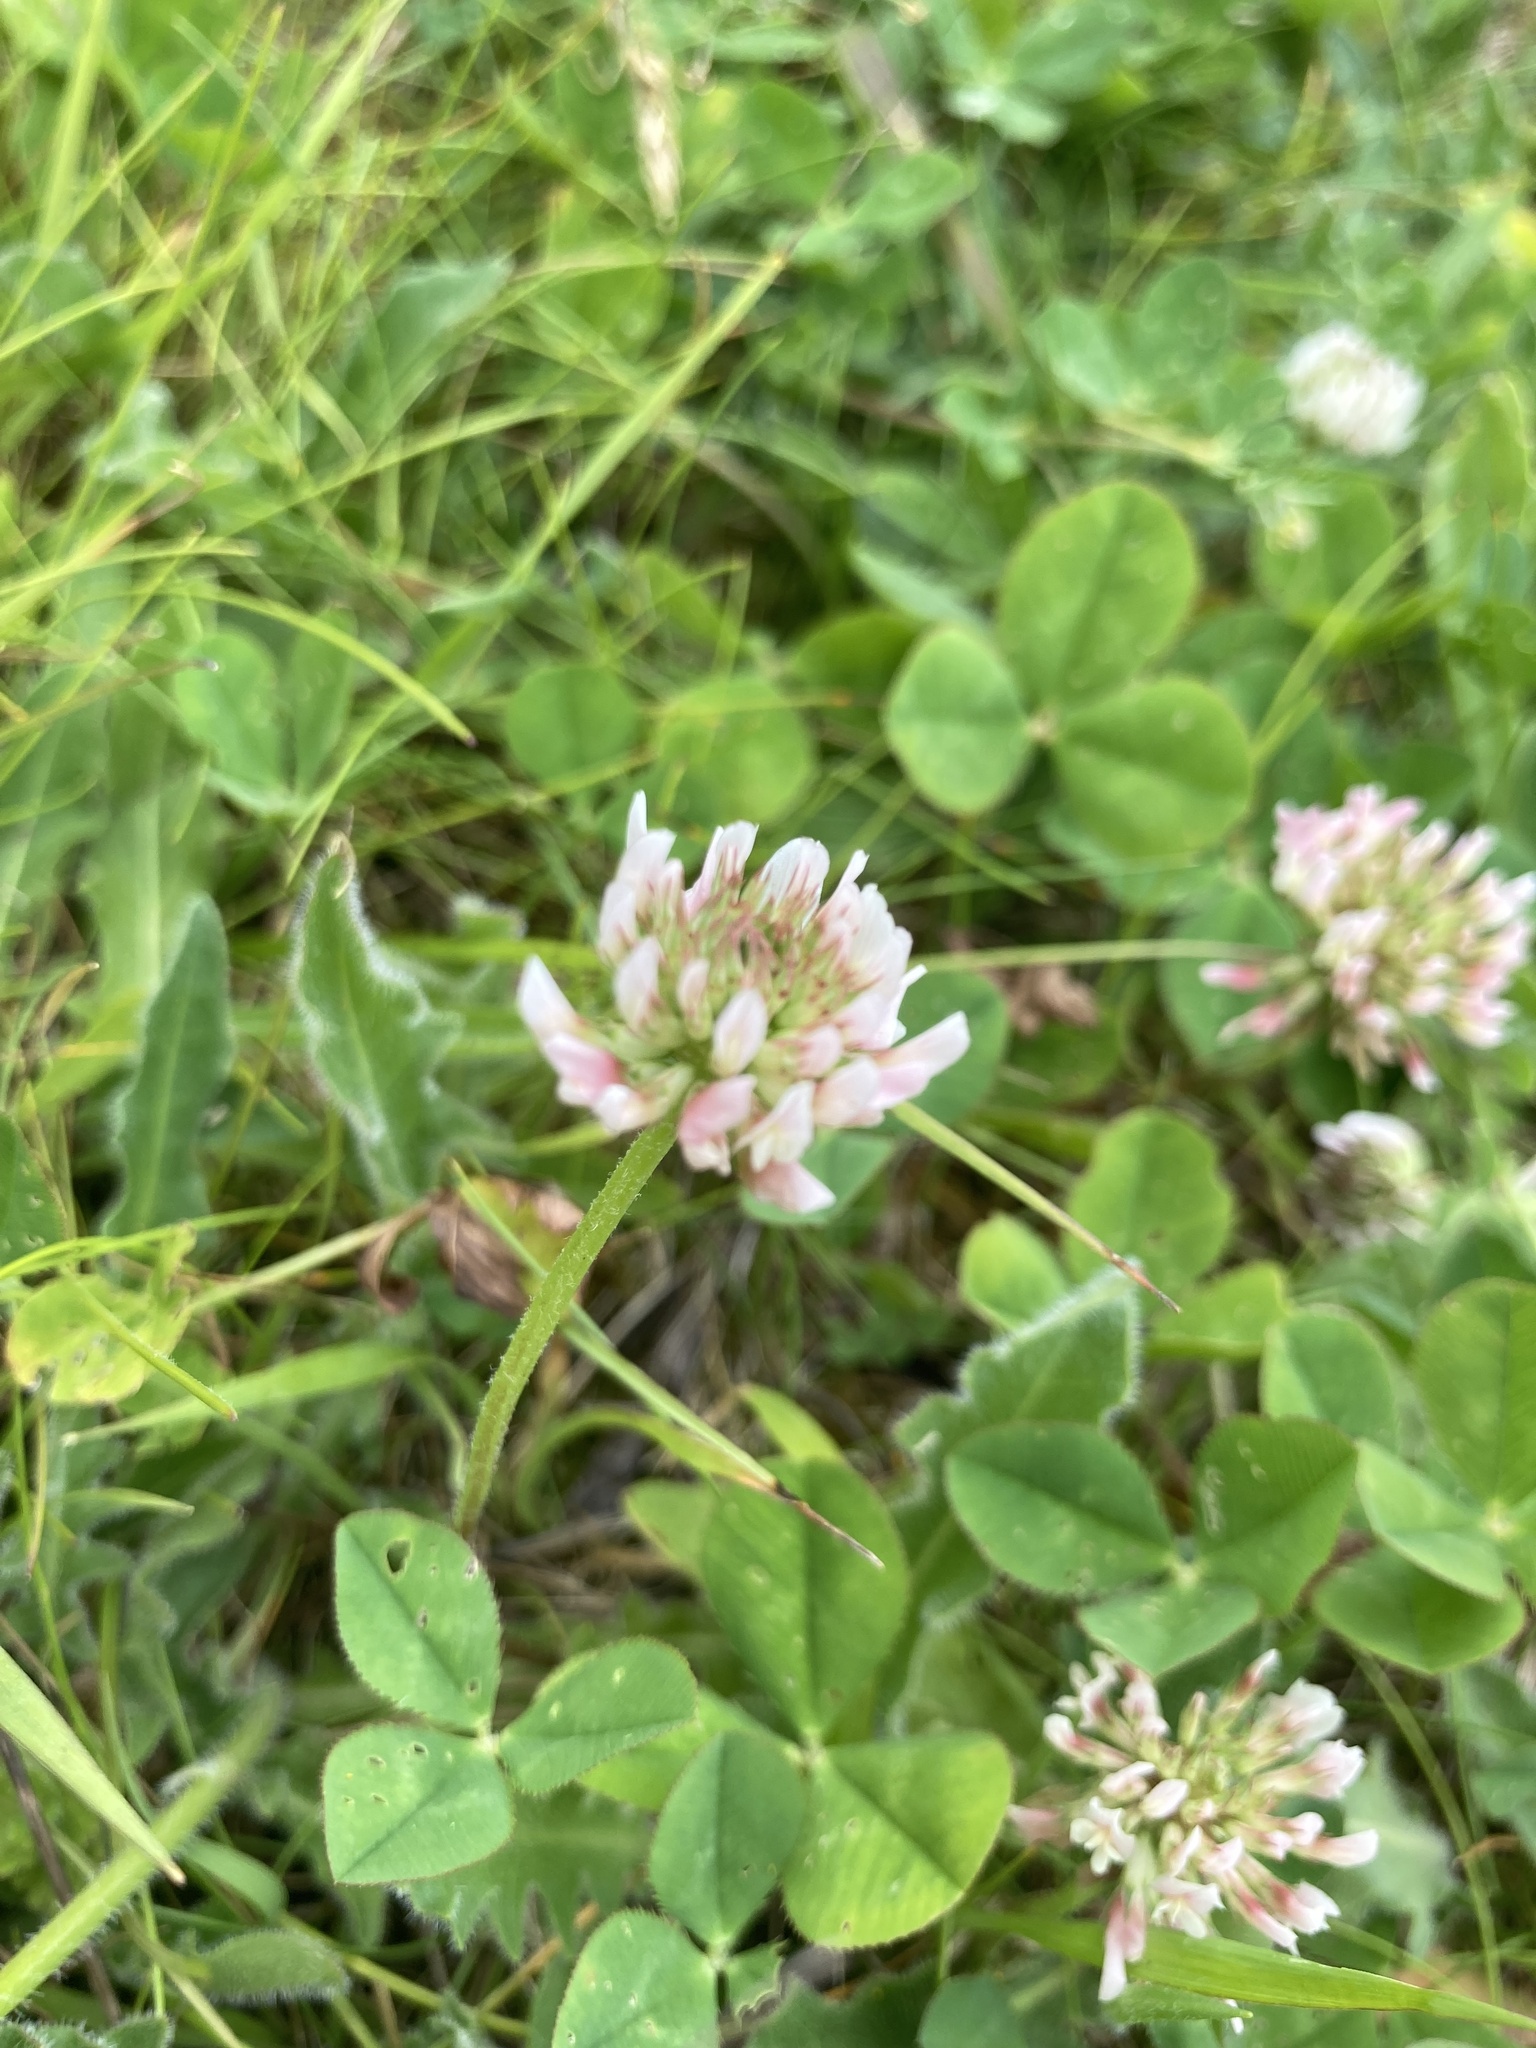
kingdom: Plantae
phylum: Tracheophyta
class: Magnoliopsida
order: Fabales
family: Fabaceae
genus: Trifolium
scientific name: Trifolium repens
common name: White clover
